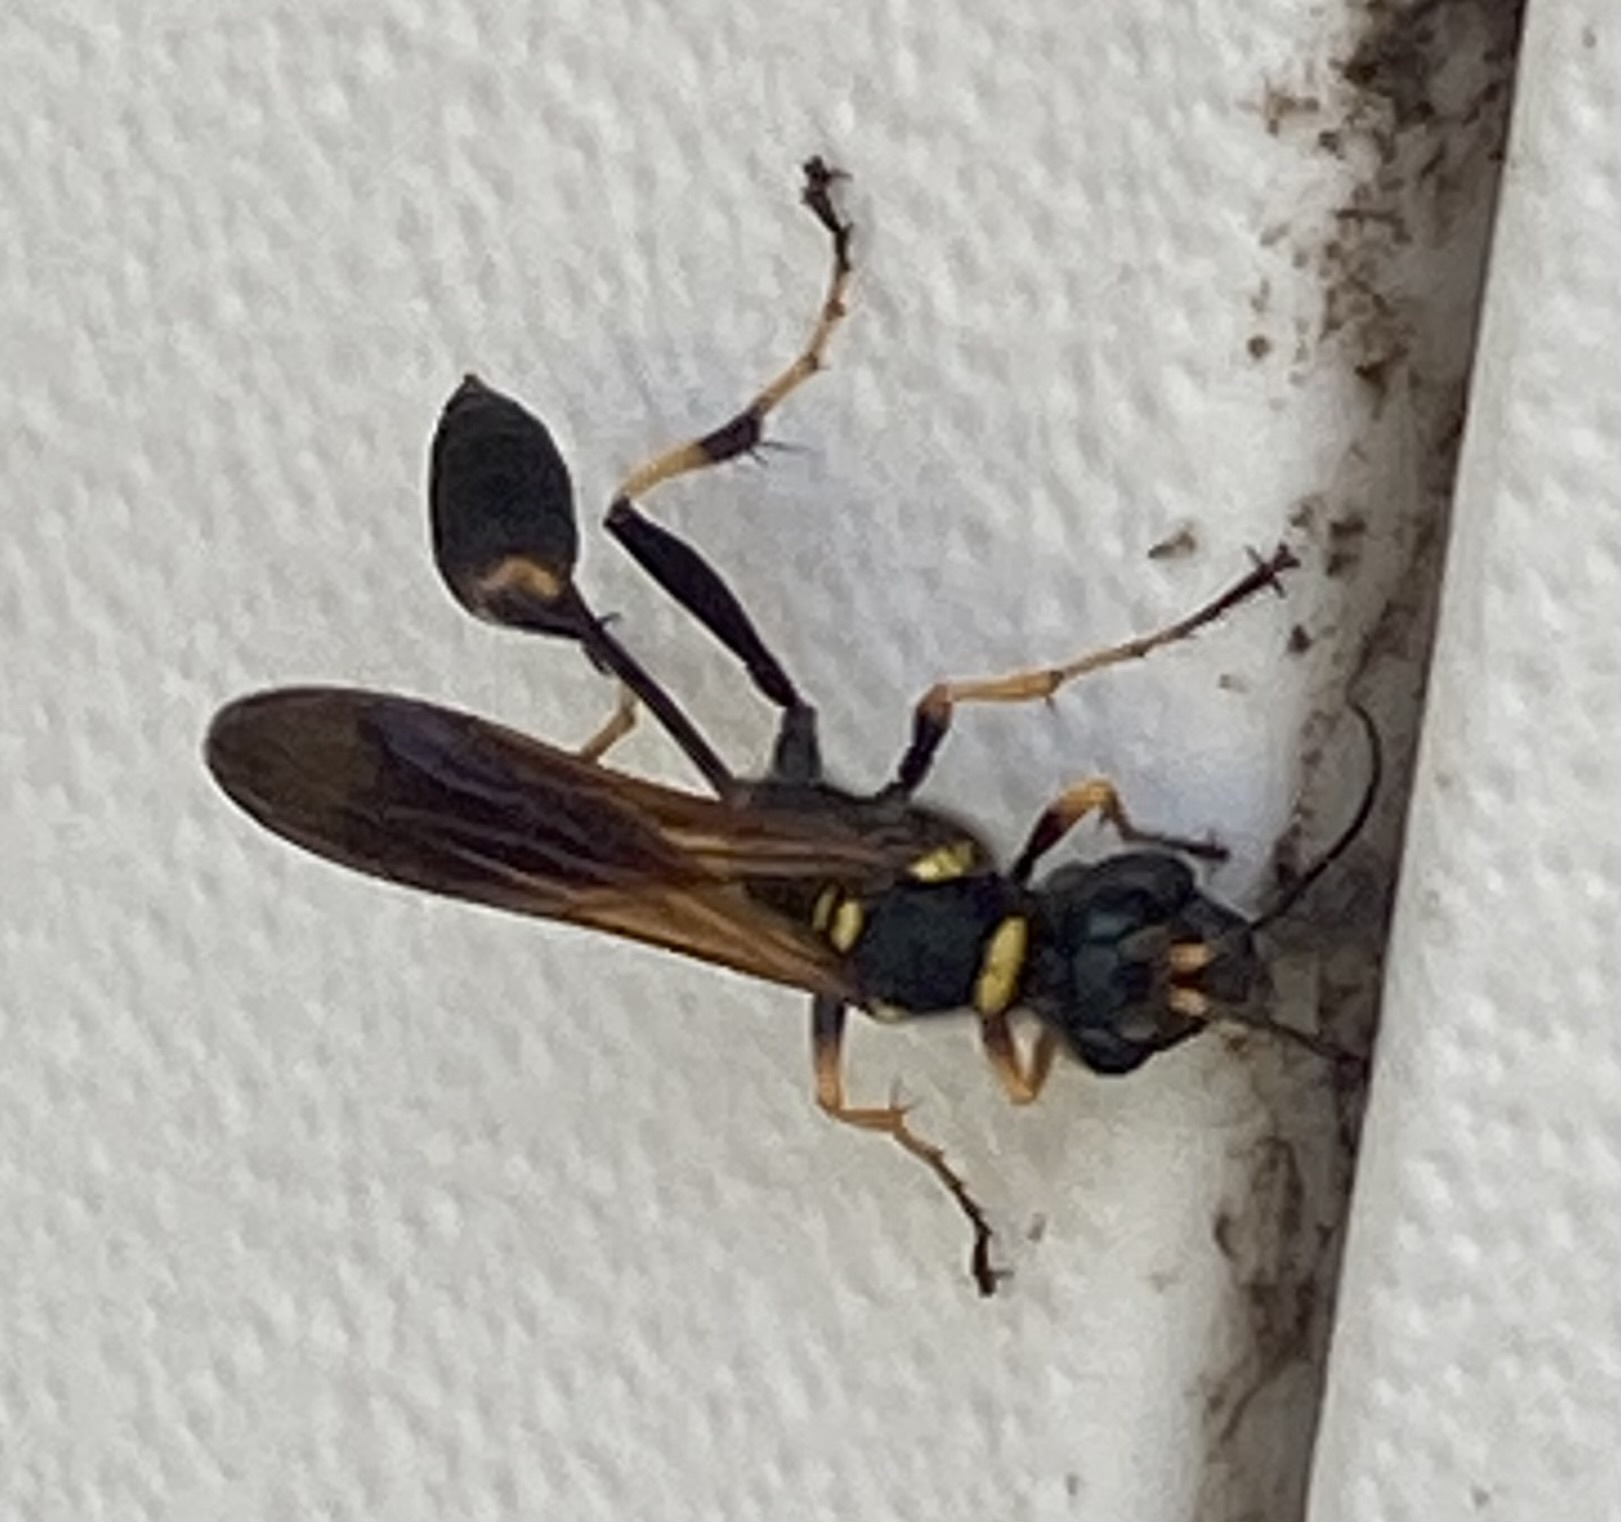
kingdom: Animalia
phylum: Arthropoda
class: Insecta
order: Hymenoptera
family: Sphecidae
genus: Sceliphron
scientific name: Sceliphron caementarium
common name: Mud dauber
